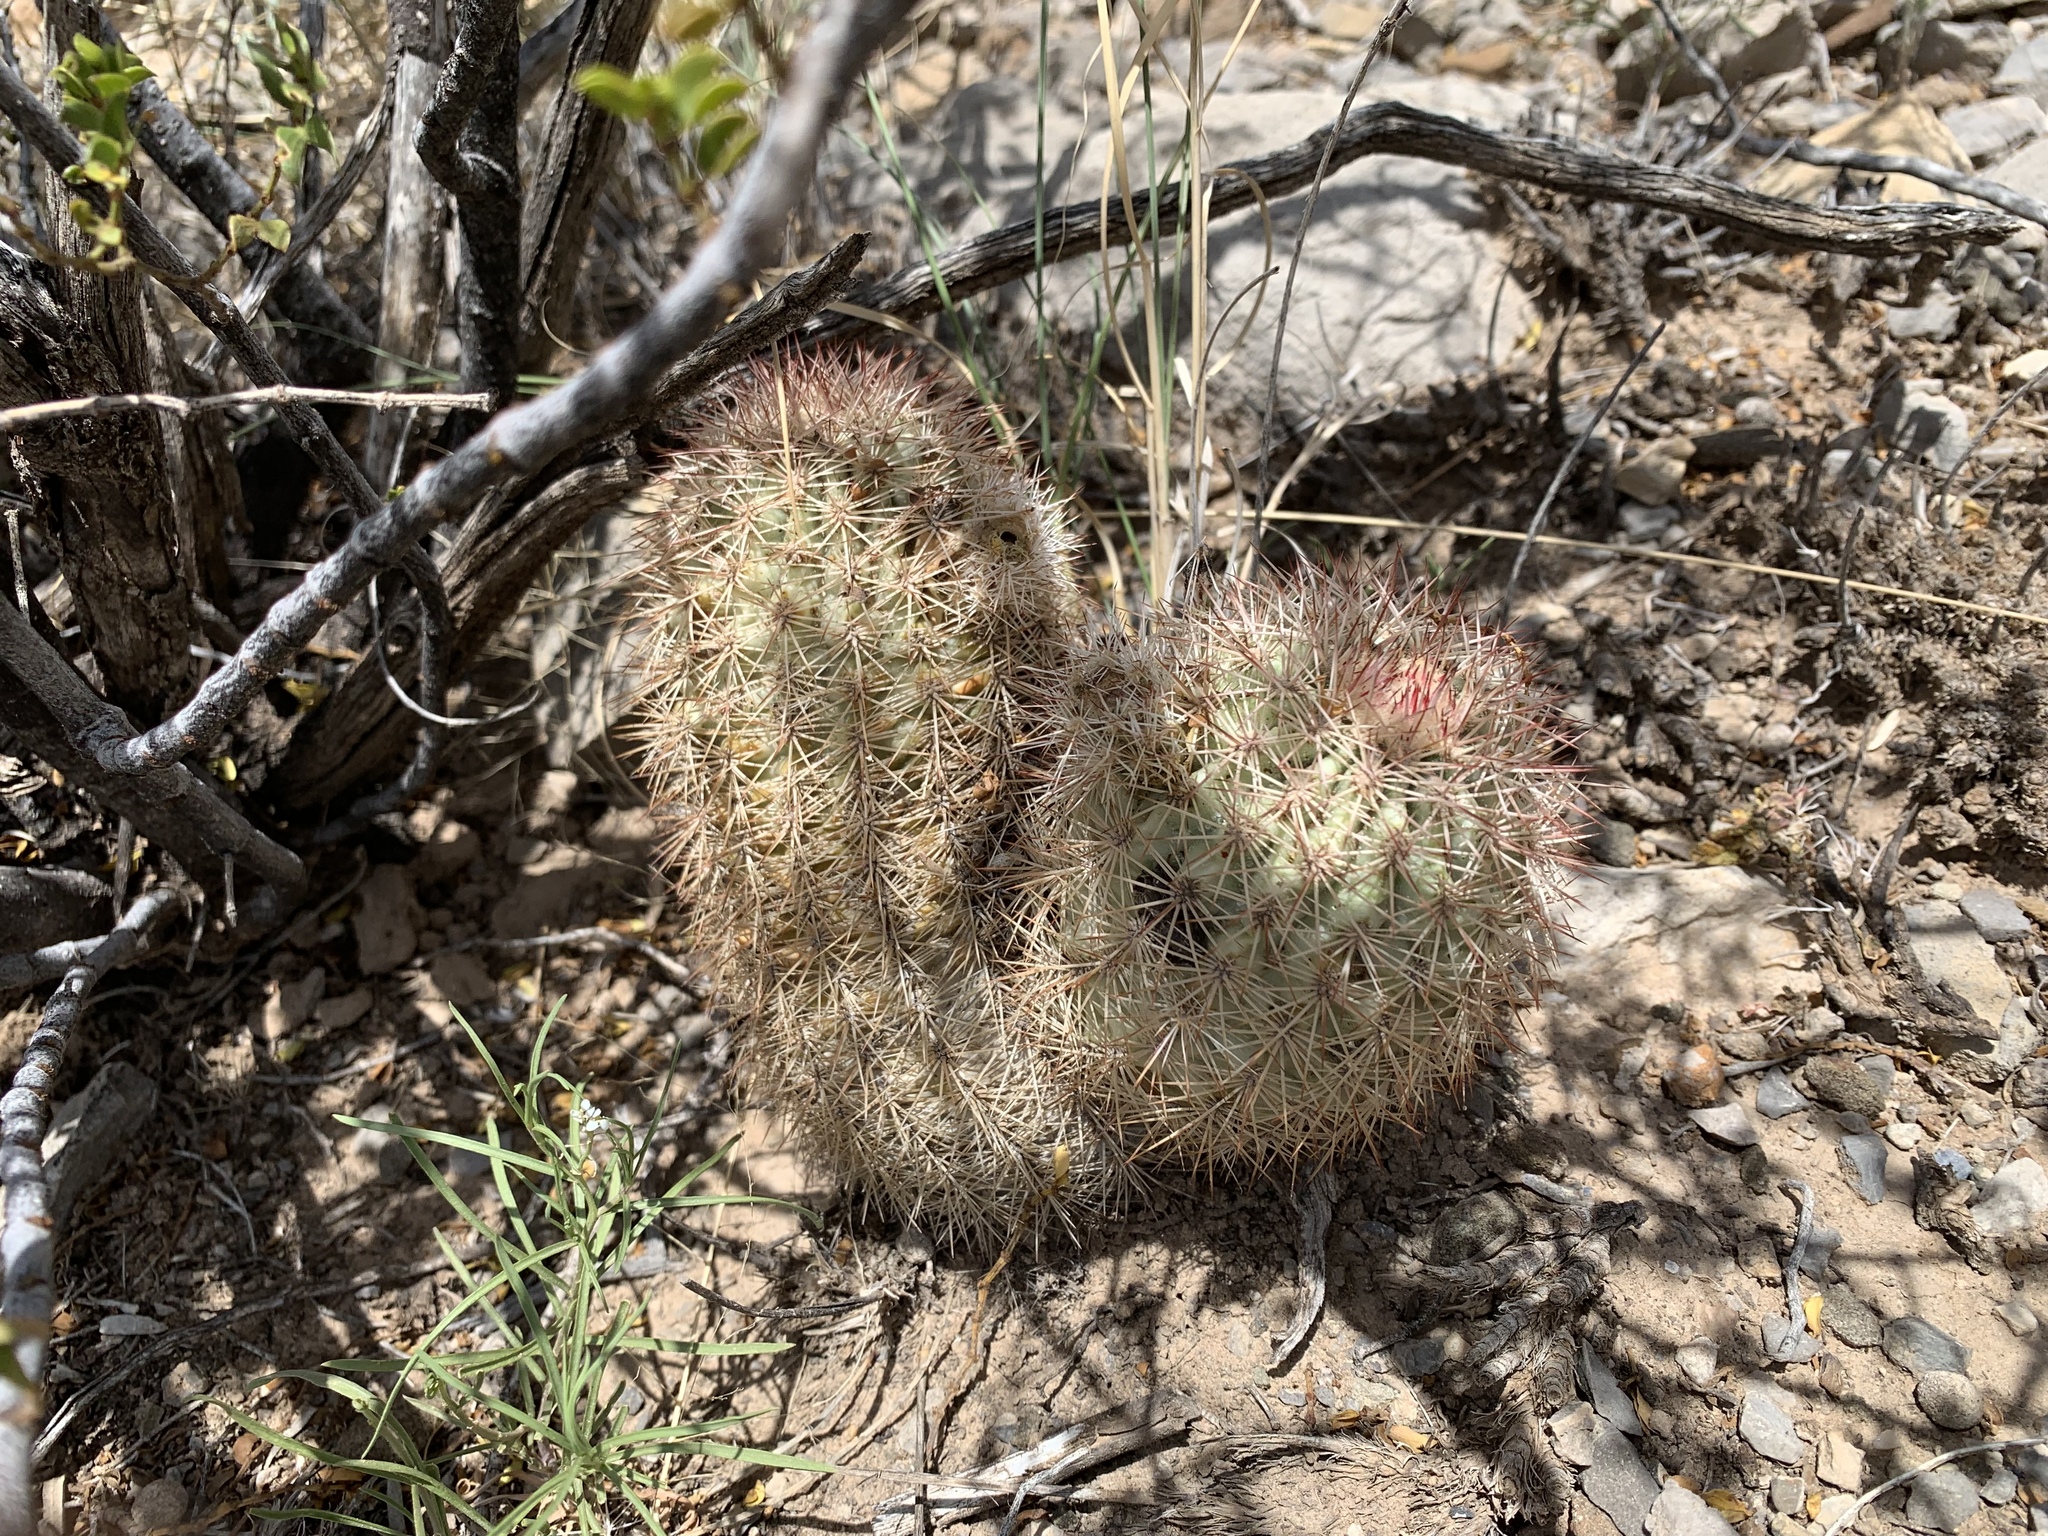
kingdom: Plantae
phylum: Tracheophyta
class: Magnoliopsida
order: Caryophyllales
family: Cactaceae
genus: Echinocereus
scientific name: Echinocereus dasyacanthus
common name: Spiny hedgehog cactus
